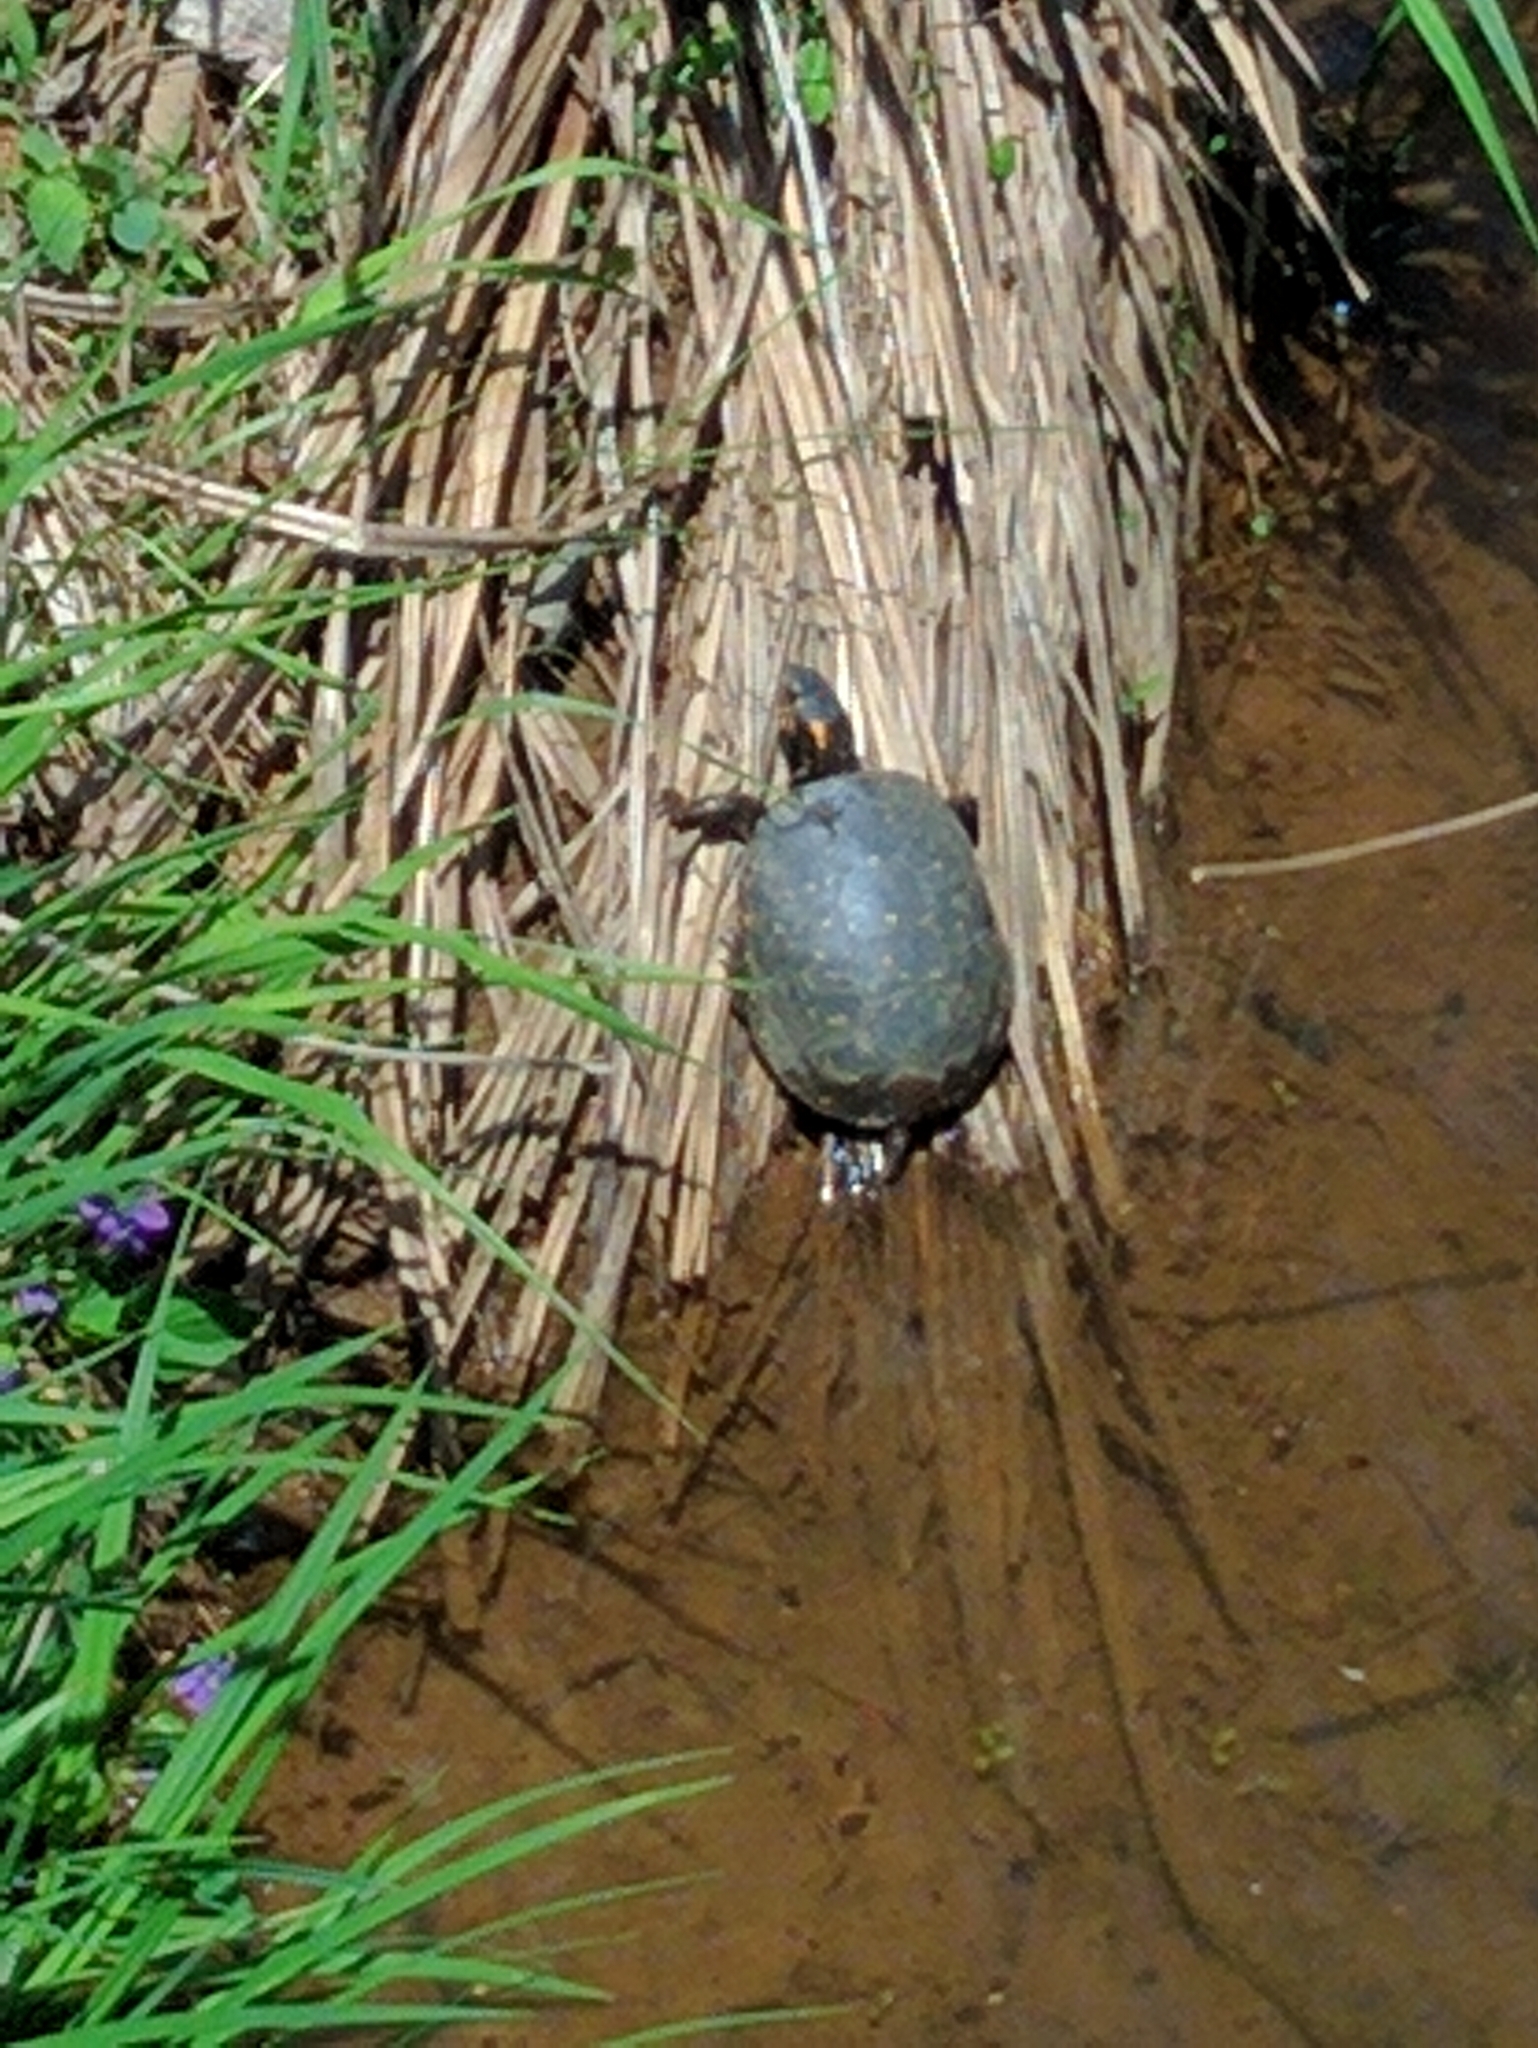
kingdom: Animalia
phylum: Chordata
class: Testudines
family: Emydidae
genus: Clemmys
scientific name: Clemmys guttata
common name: Spotted turtle
